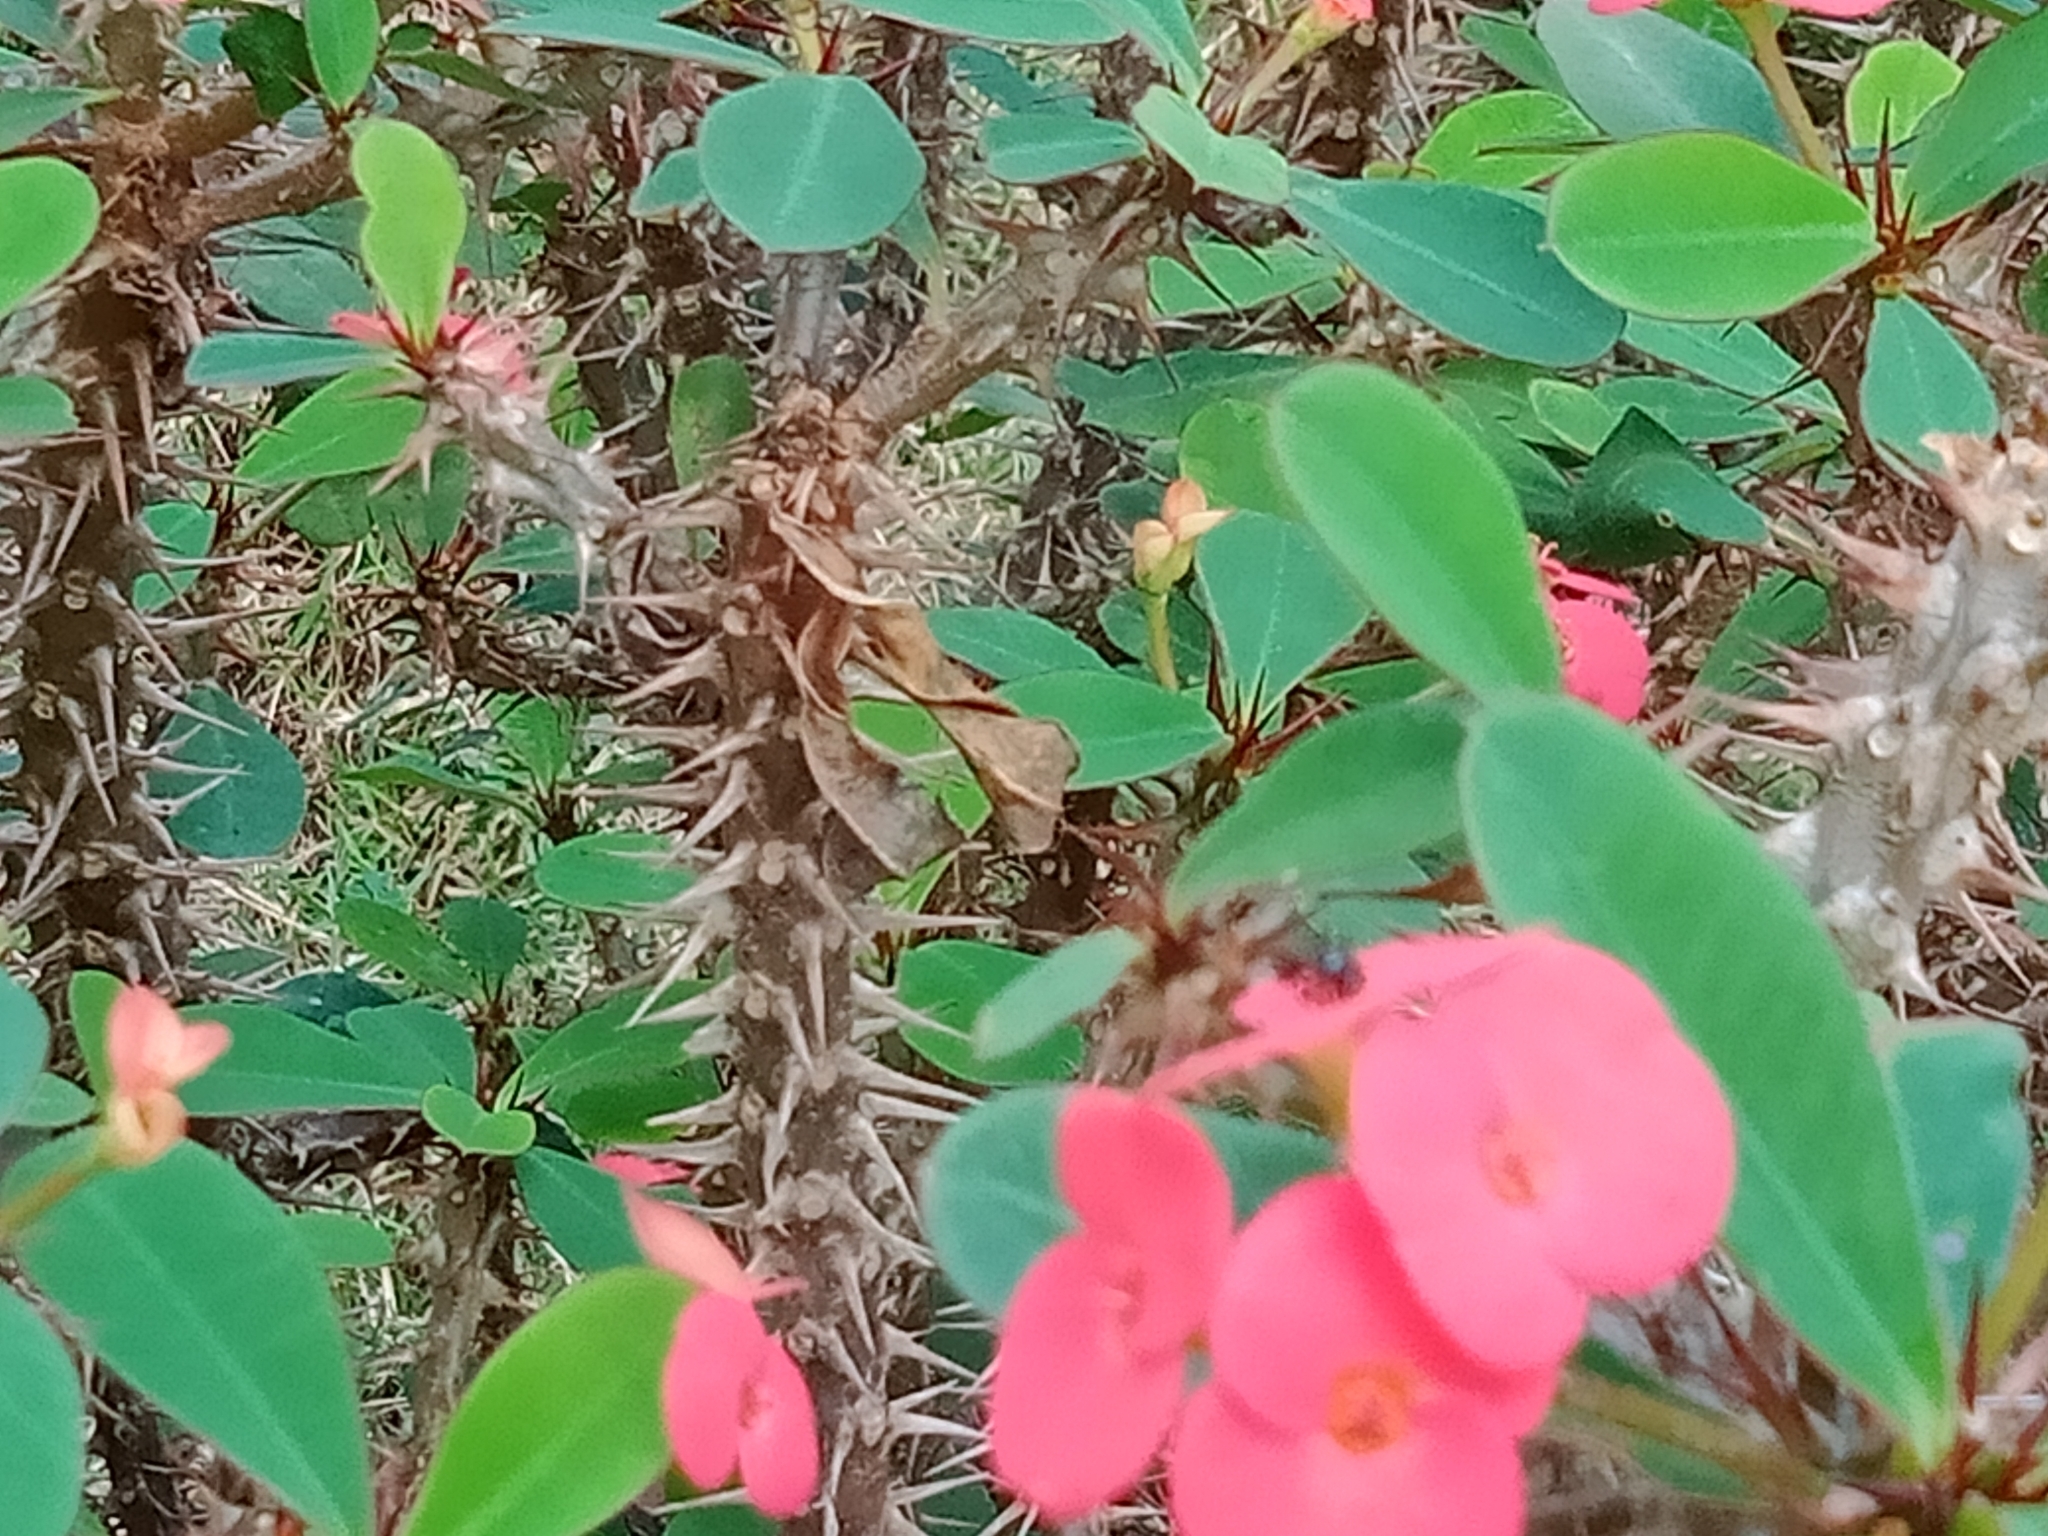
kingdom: Animalia
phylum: Arthropoda
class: Insecta
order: Hymenoptera
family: Apidae
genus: Tetragonula
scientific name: Tetragonula
